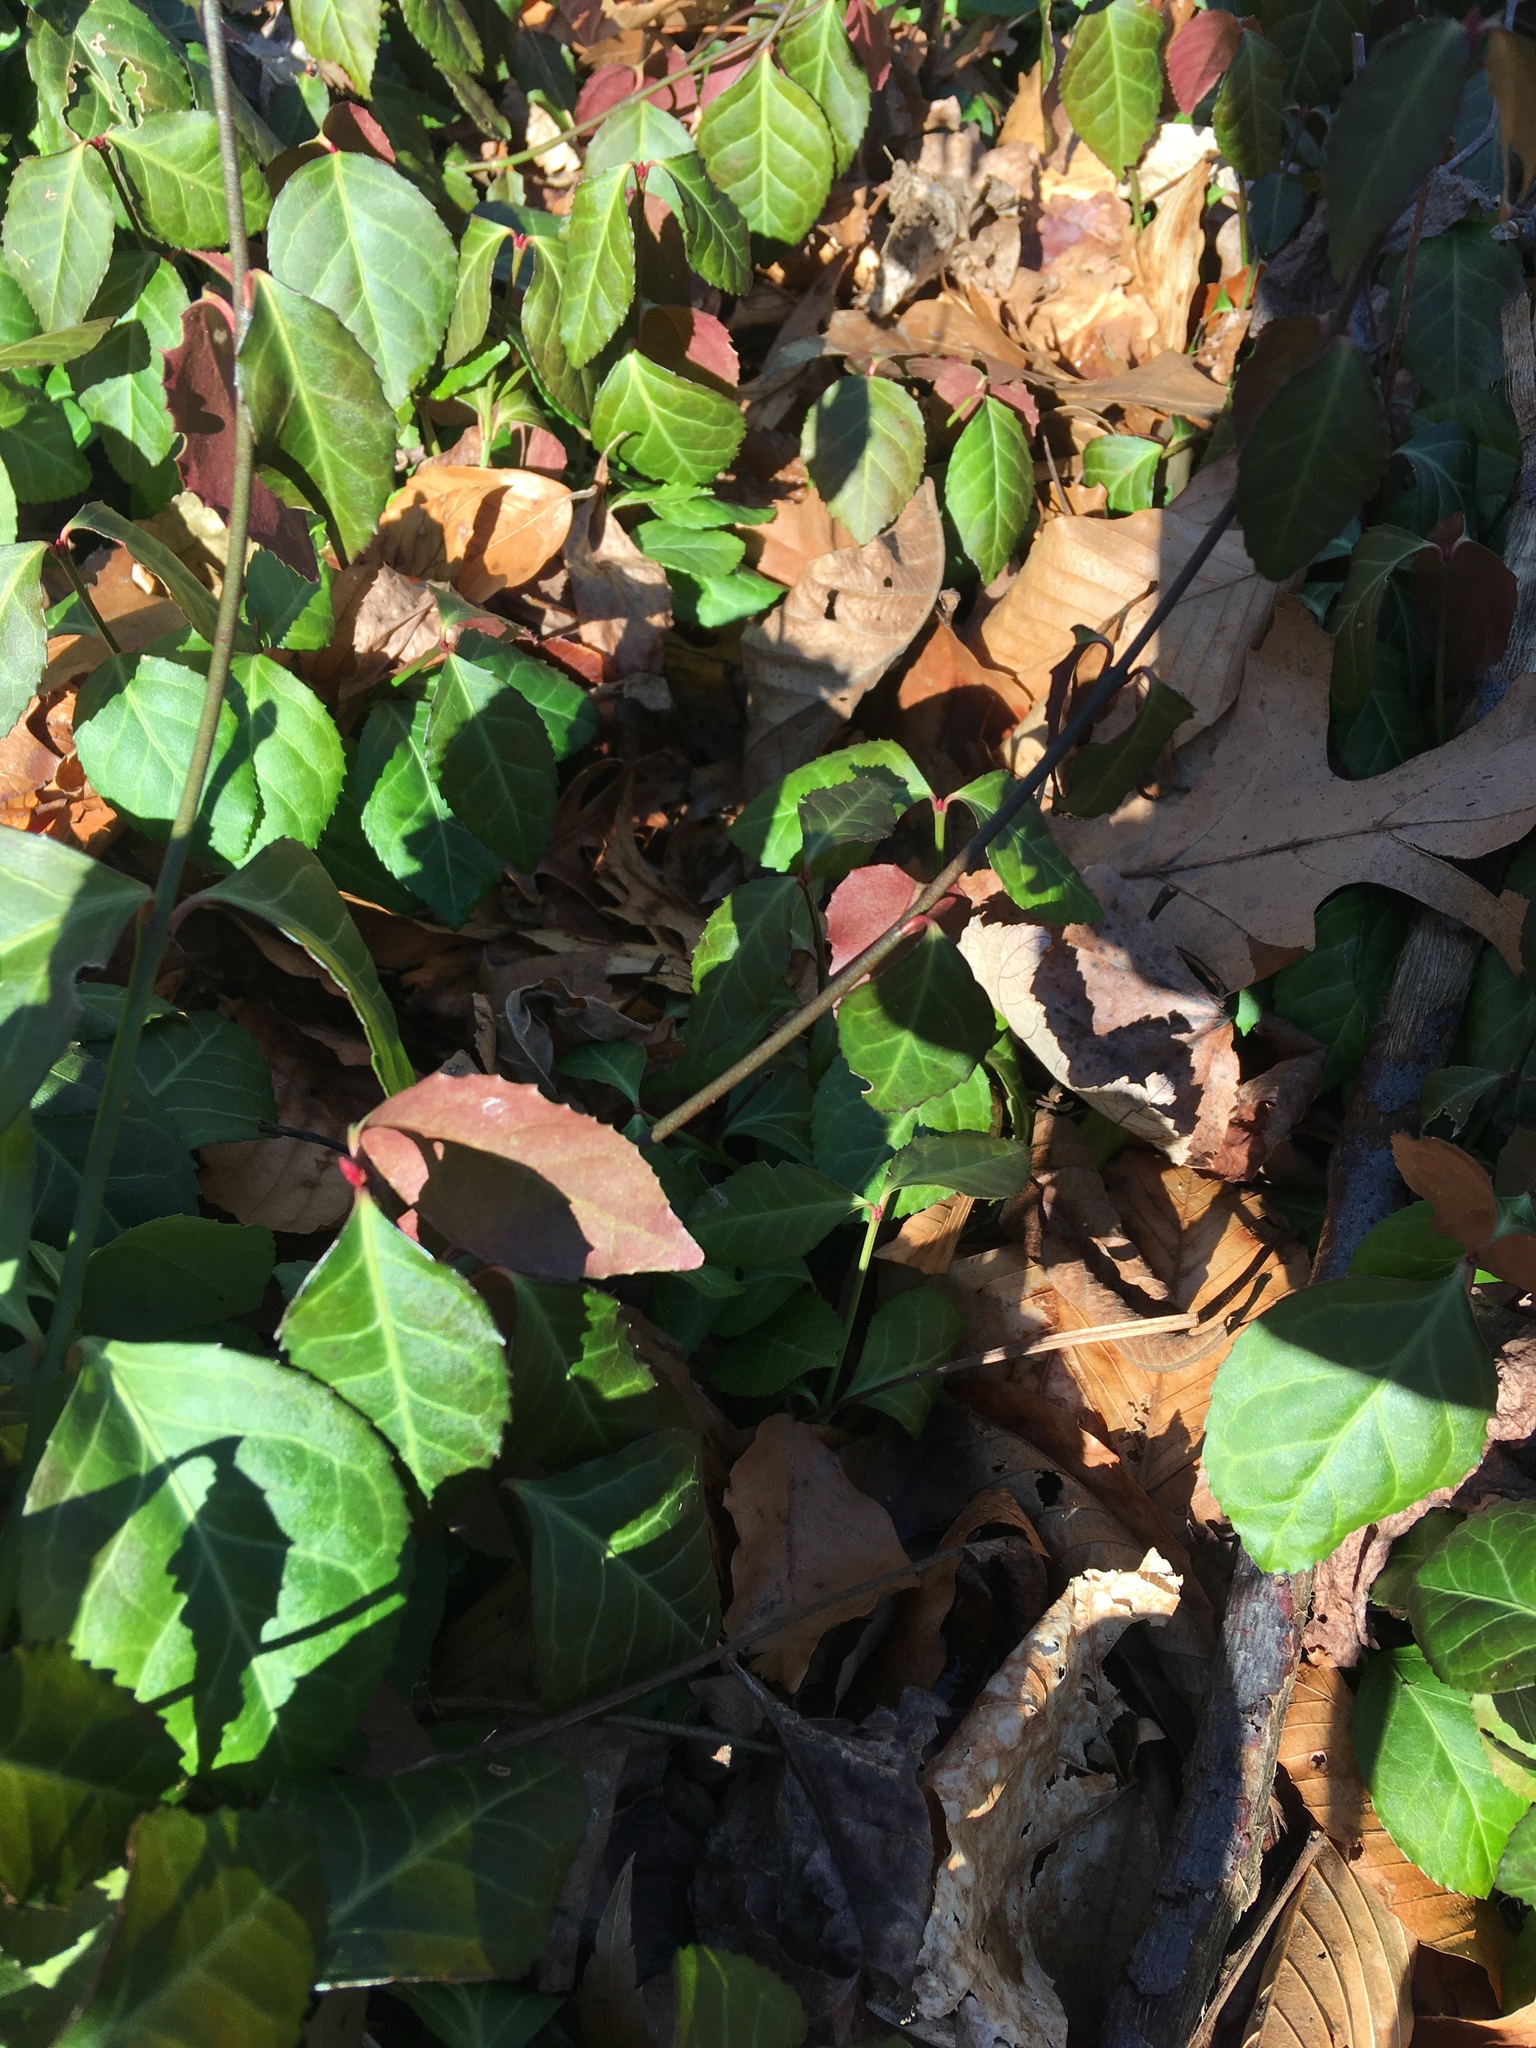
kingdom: Plantae
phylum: Tracheophyta
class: Magnoliopsida
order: Celastrales
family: Celastraceae
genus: Euonymus
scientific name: Euonymus fortunei
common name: Climbing euonymus
